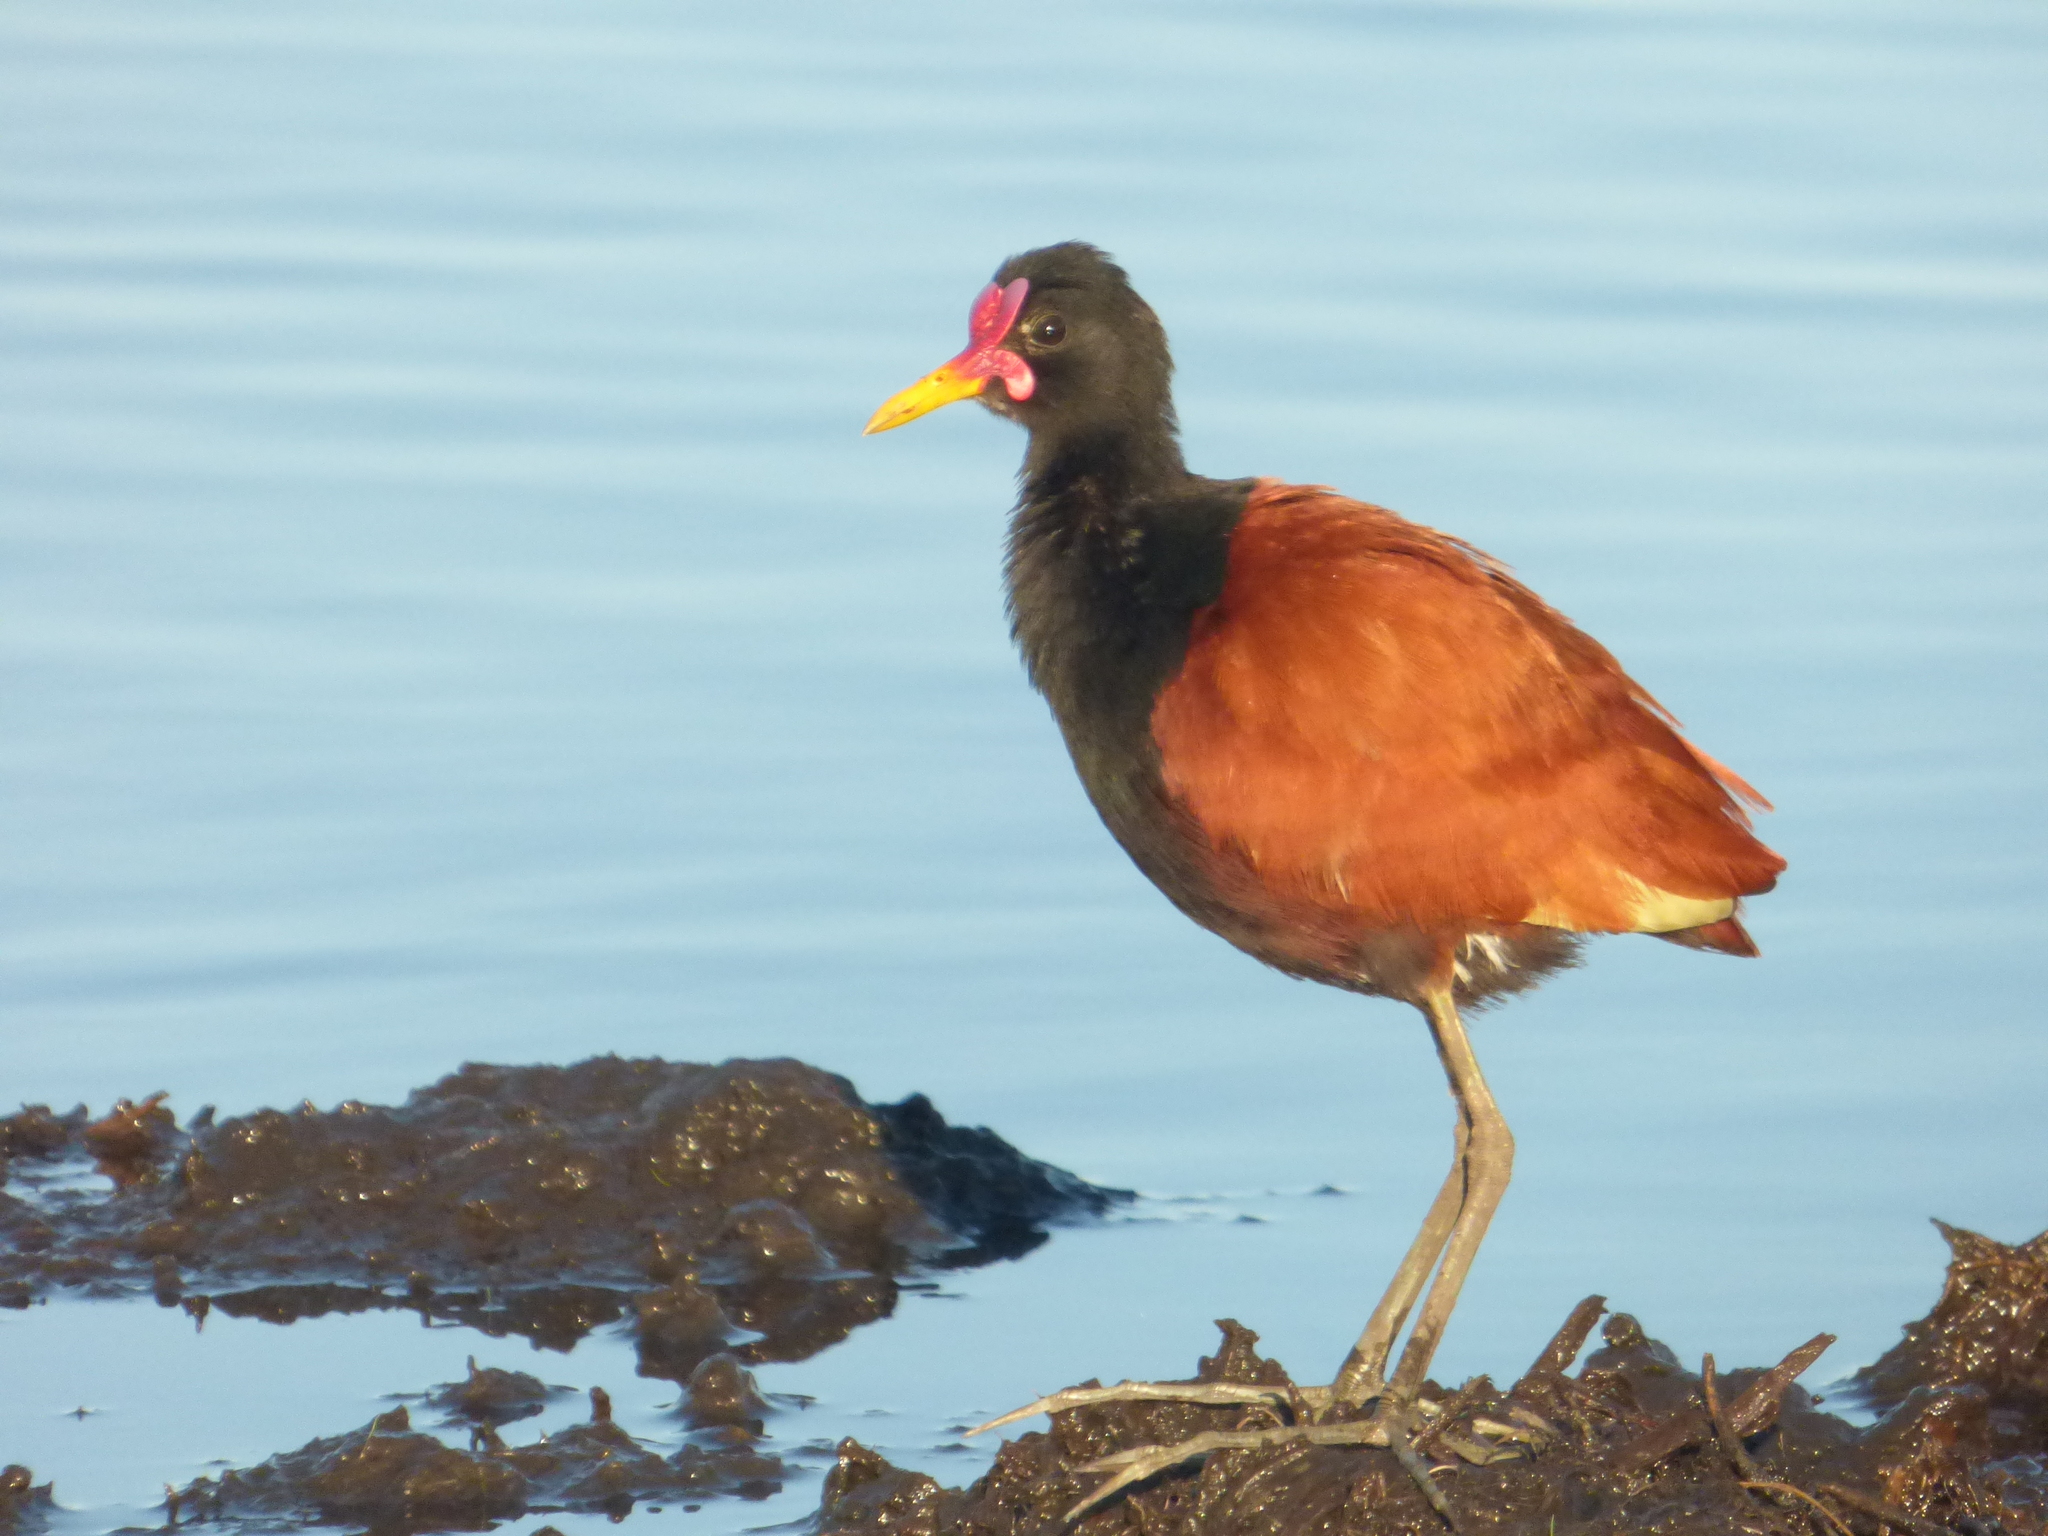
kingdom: Animalia
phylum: Chordata
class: Aves
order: Charadriiformes
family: Jacanidae
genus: Jacana
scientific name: Jacana jacana
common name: Wattled jacana
